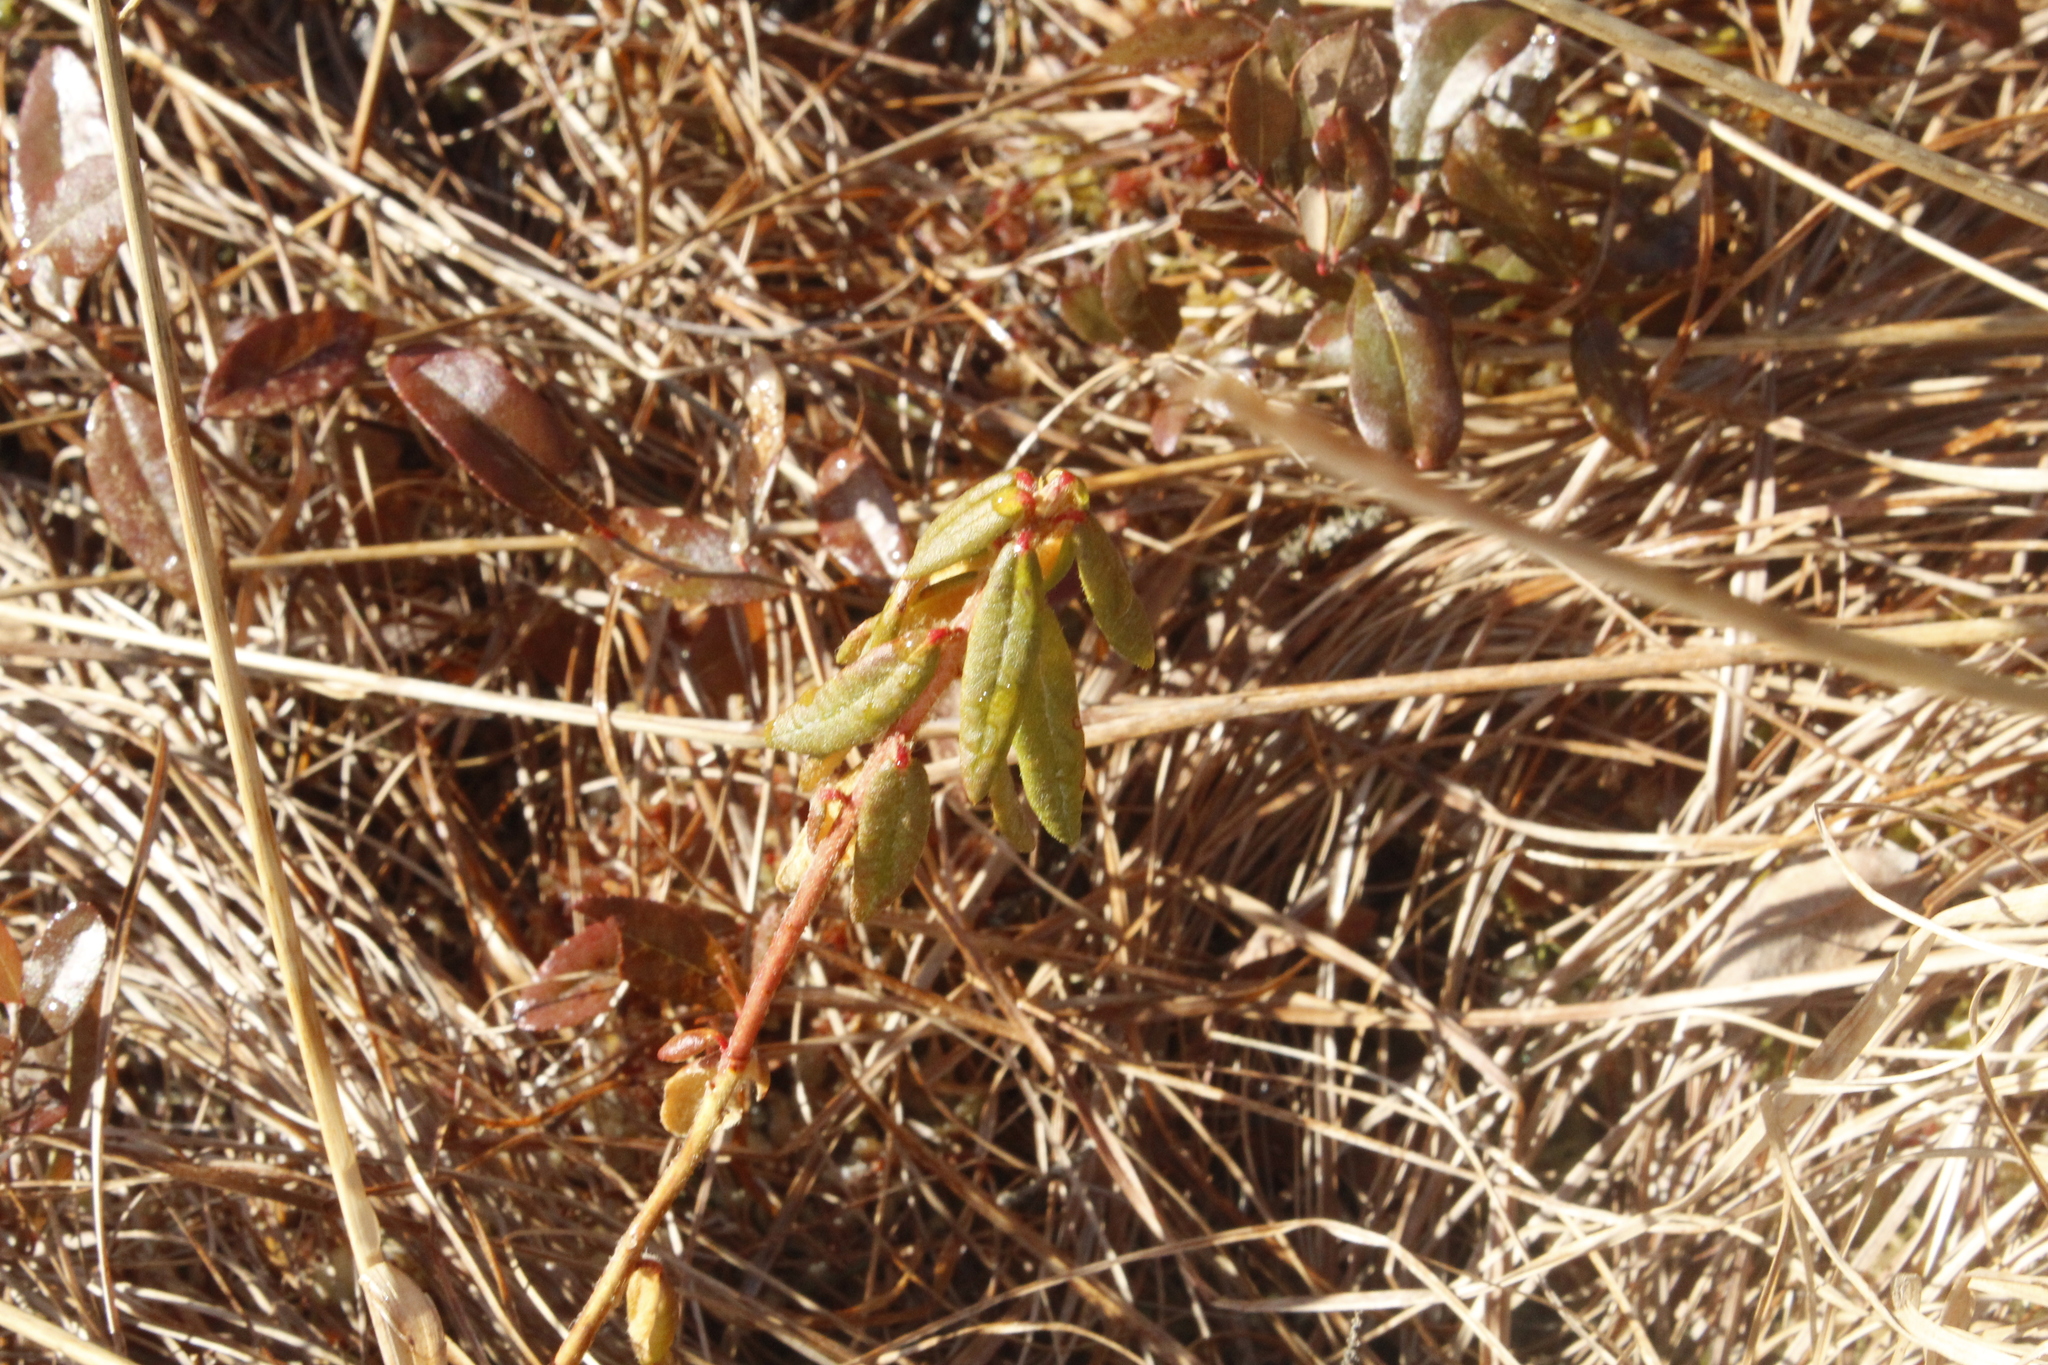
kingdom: Plantae
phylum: Tracheophyta
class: Magnoliopsida
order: Ericales
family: Ericaceae
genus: Rhododendron
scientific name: Rhododendron groenlandicum
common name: Bog labrador tea
